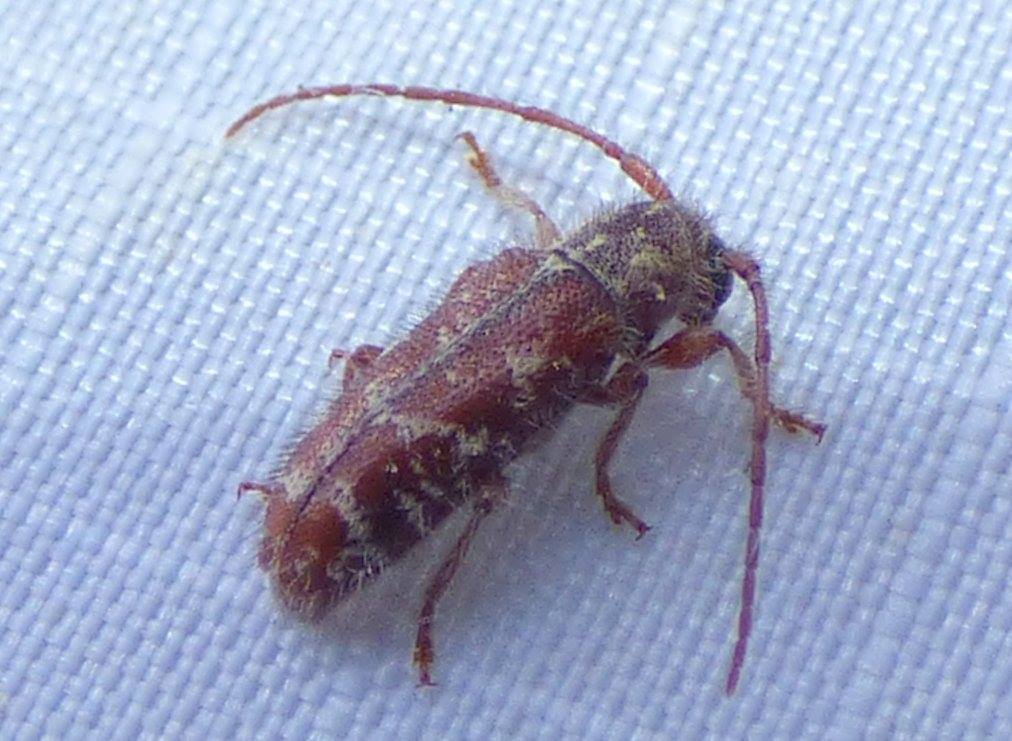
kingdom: Animalia
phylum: Arthropoda
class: Insecta
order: Coleoptera
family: Cerambycidae
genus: Eupogonius
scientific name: Eupogonius tomentosus
